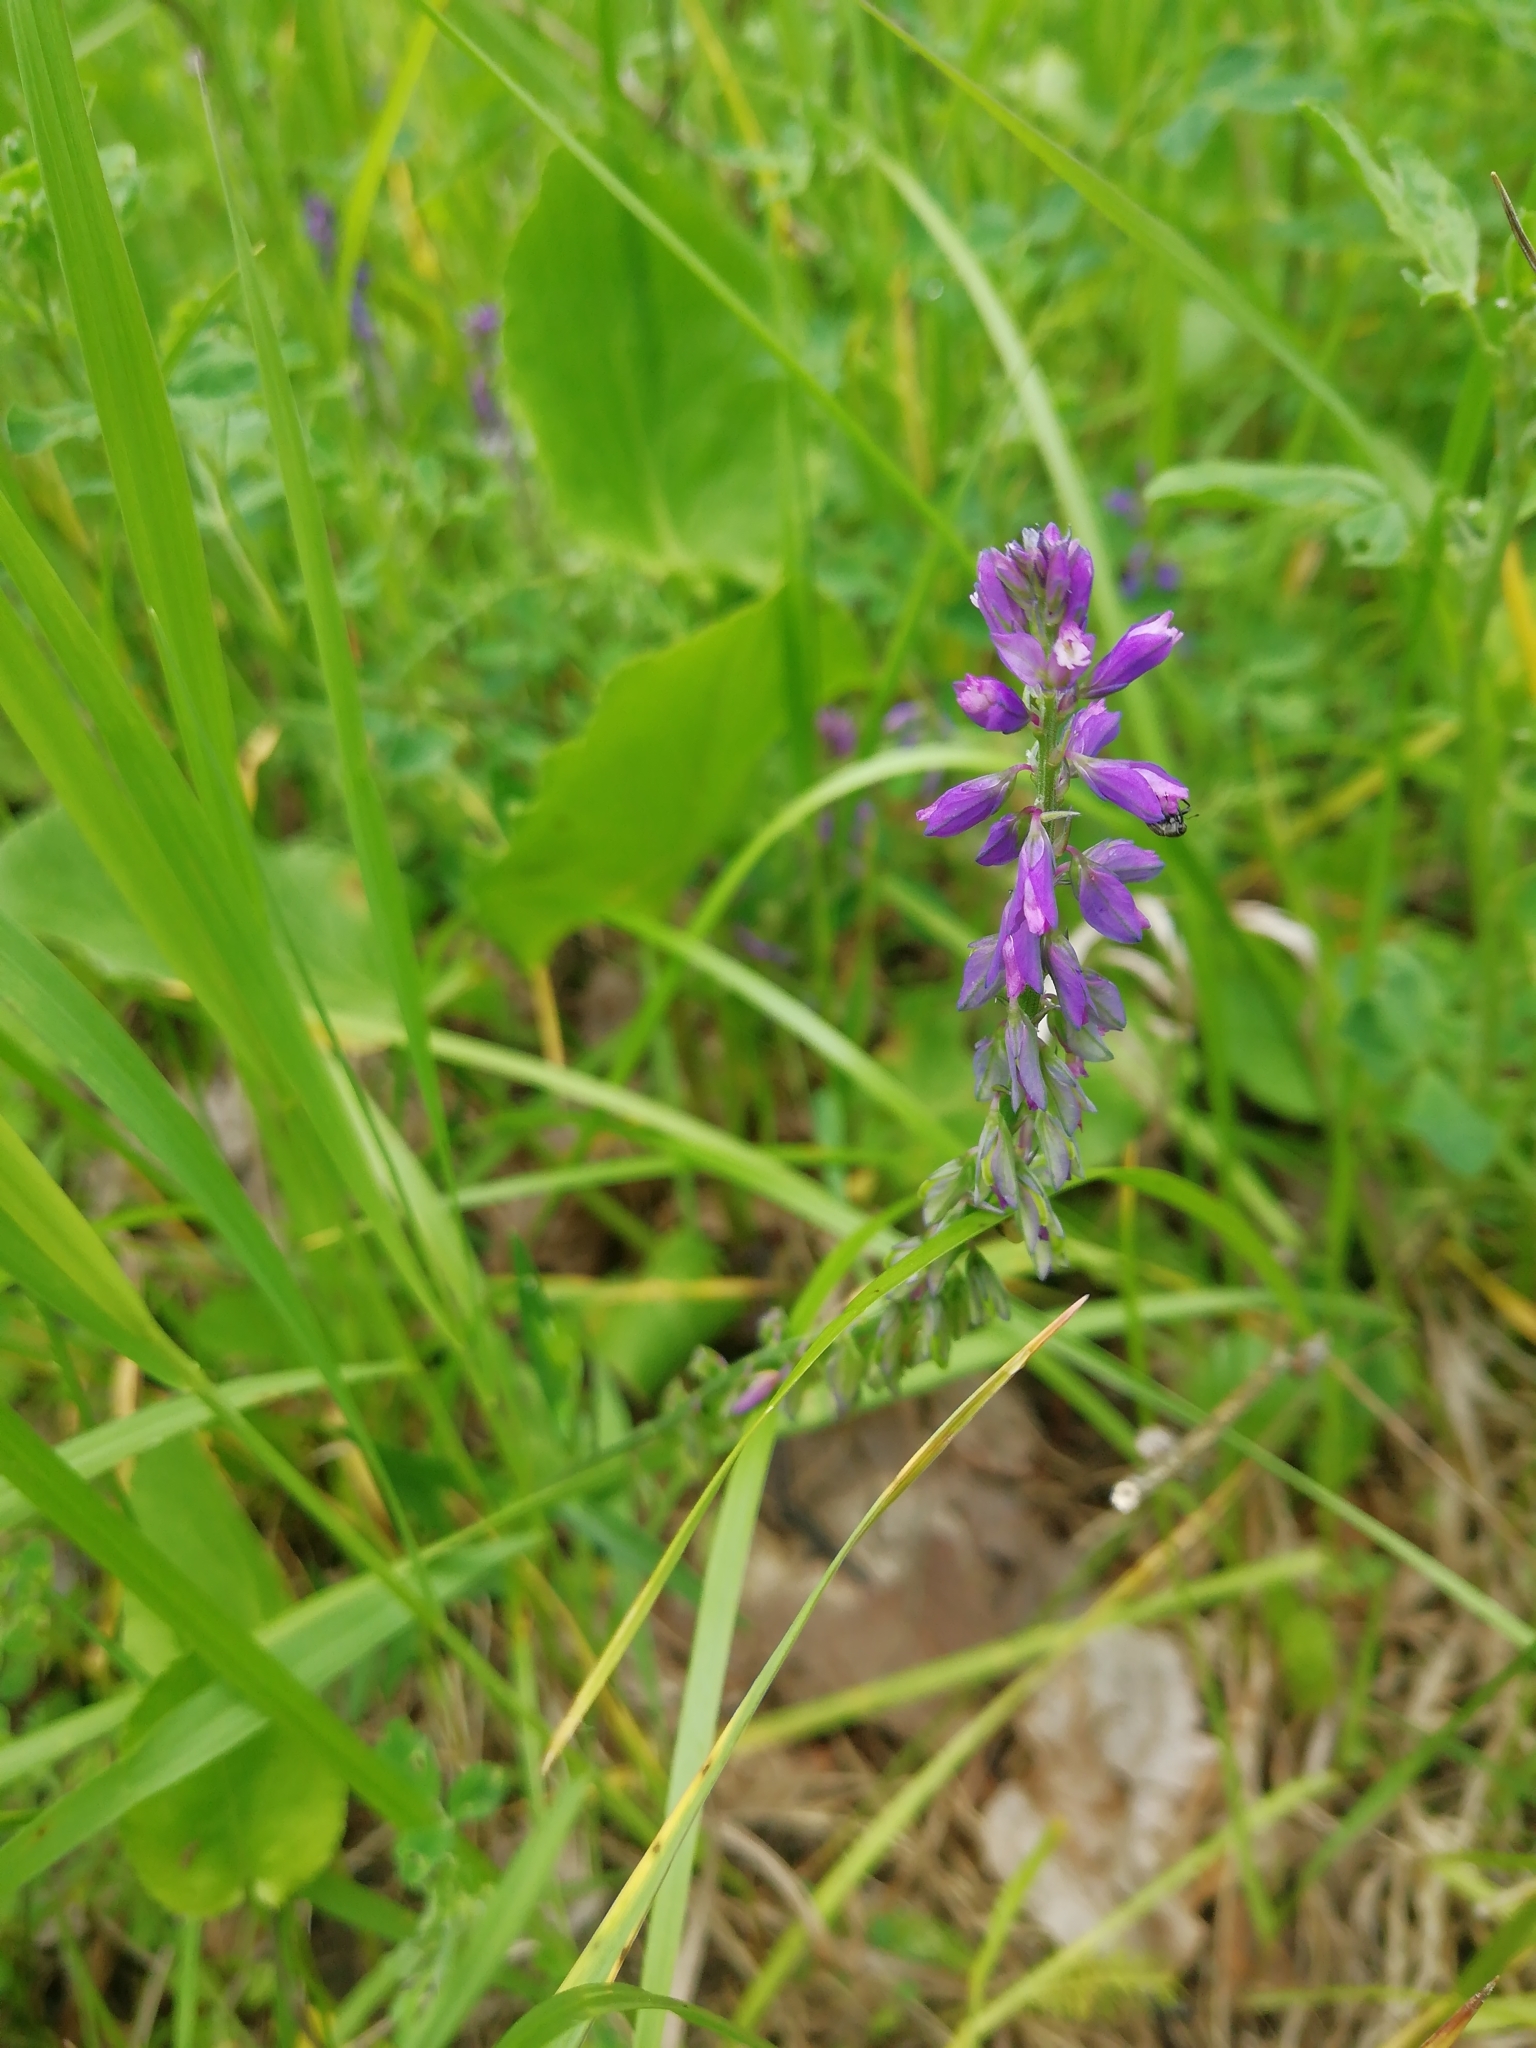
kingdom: Plantae
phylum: Tracheophyta
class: Magnoliopsida
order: Fabales
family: Polygalaceae
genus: Polygala
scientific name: Polygala comosa
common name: Tufted milkwort
